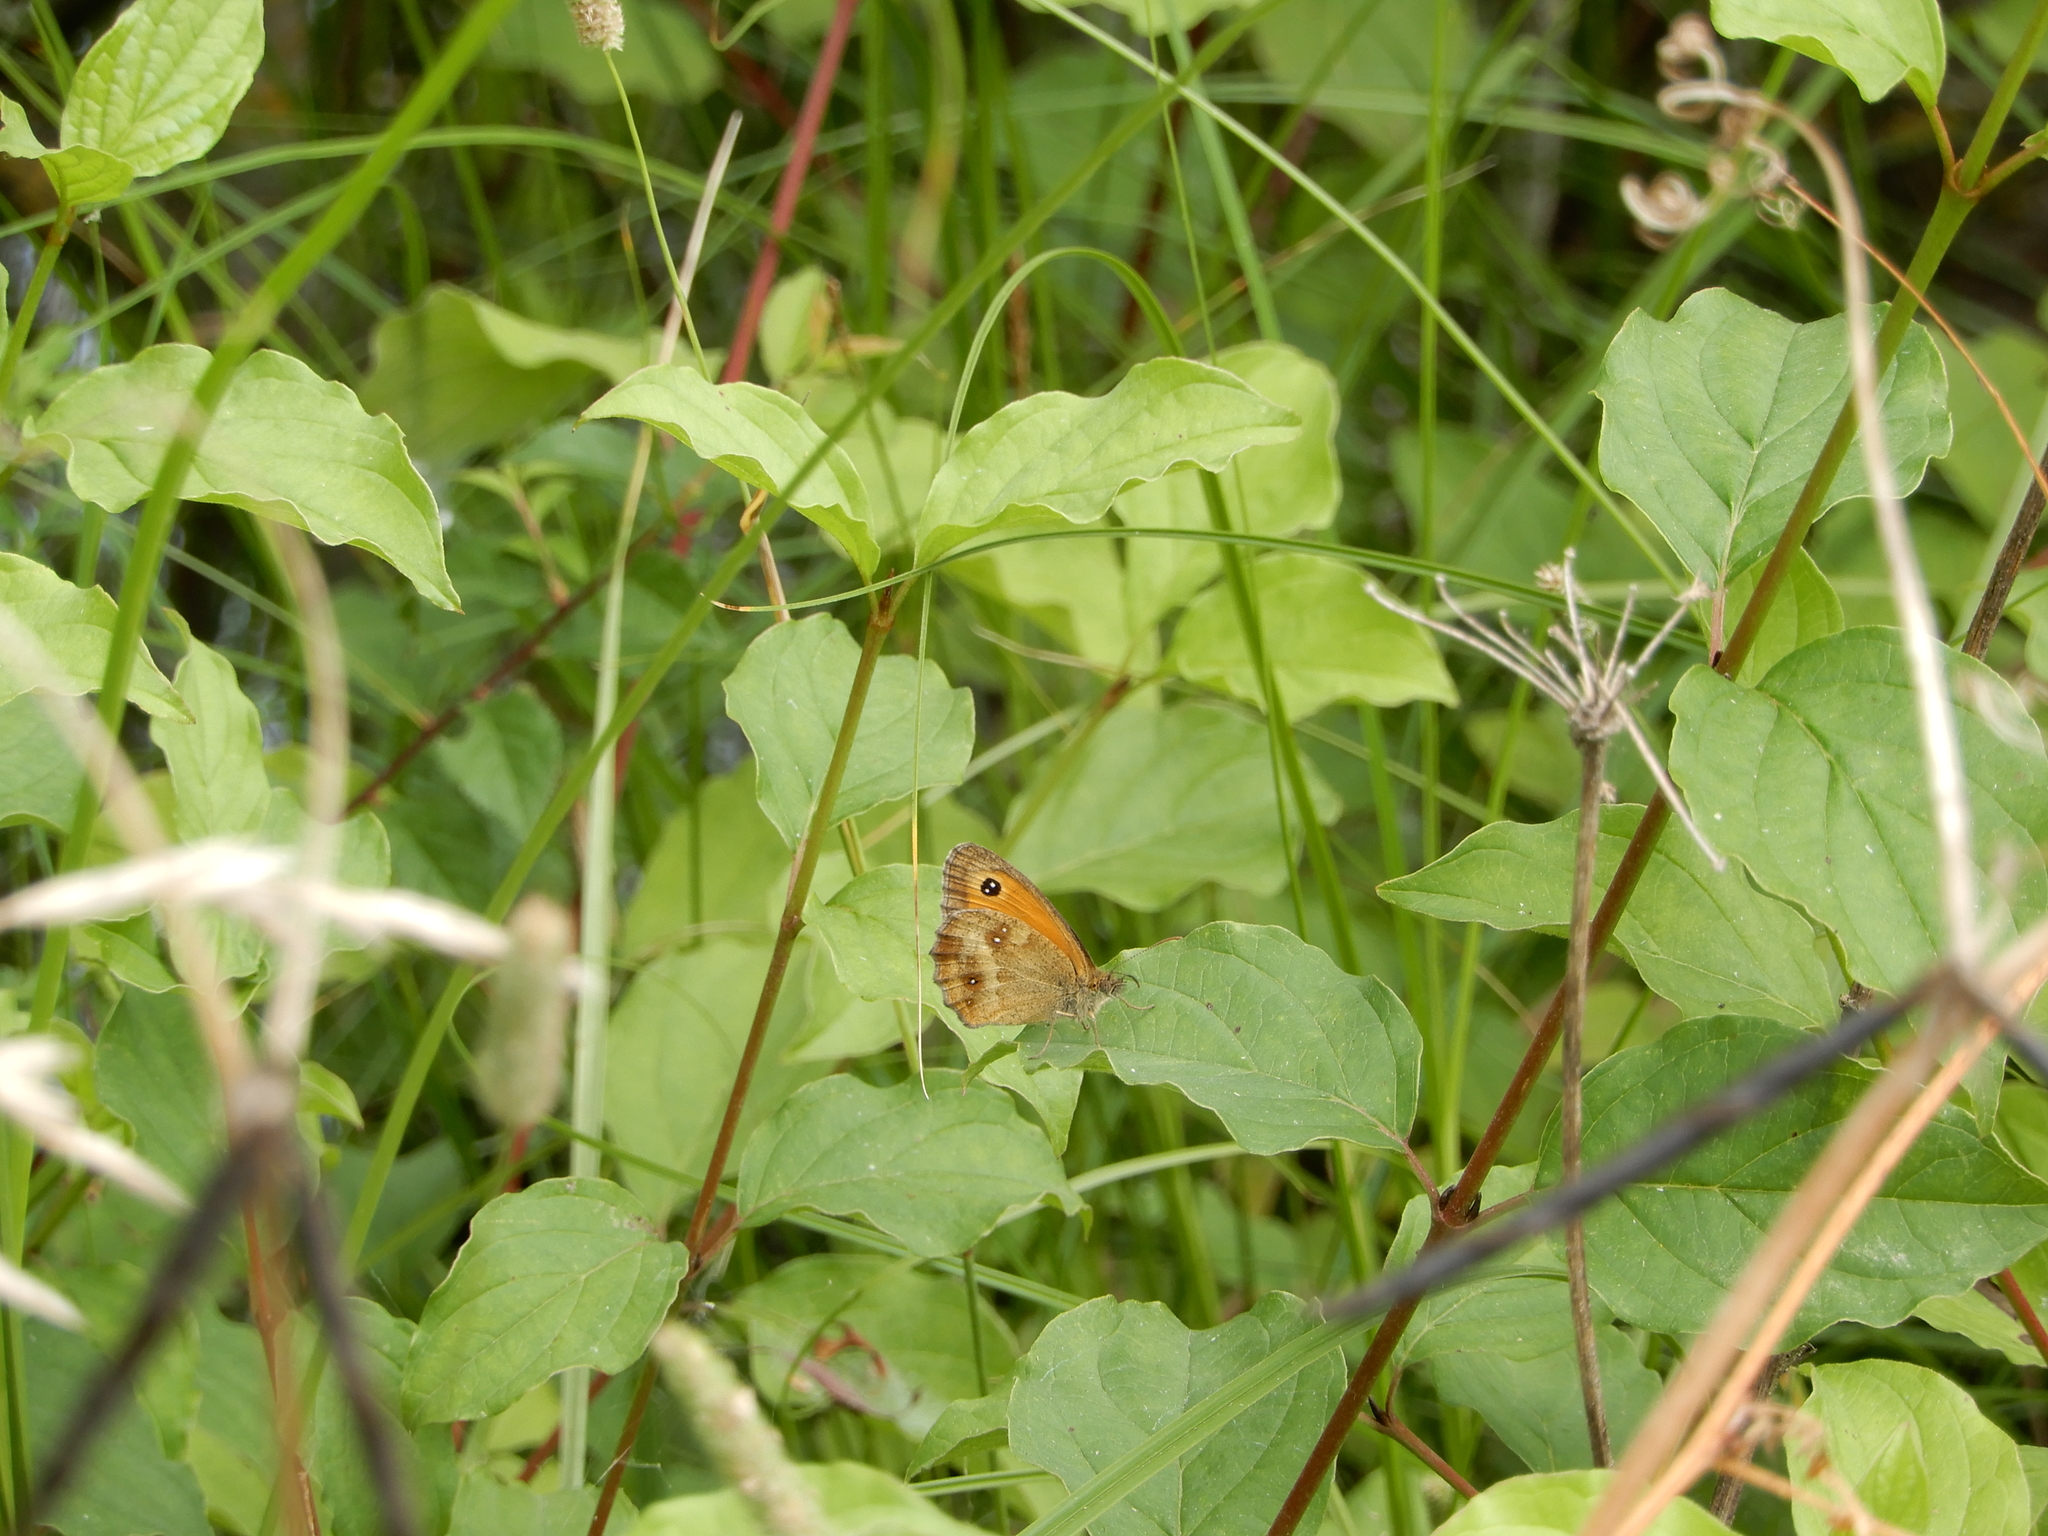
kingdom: Animalia
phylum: Arthropoda
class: Insecta
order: Lepidoptera
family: Nymphalidae
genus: Pyronia
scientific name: Pyronia tithonus
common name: Gatekeeper
